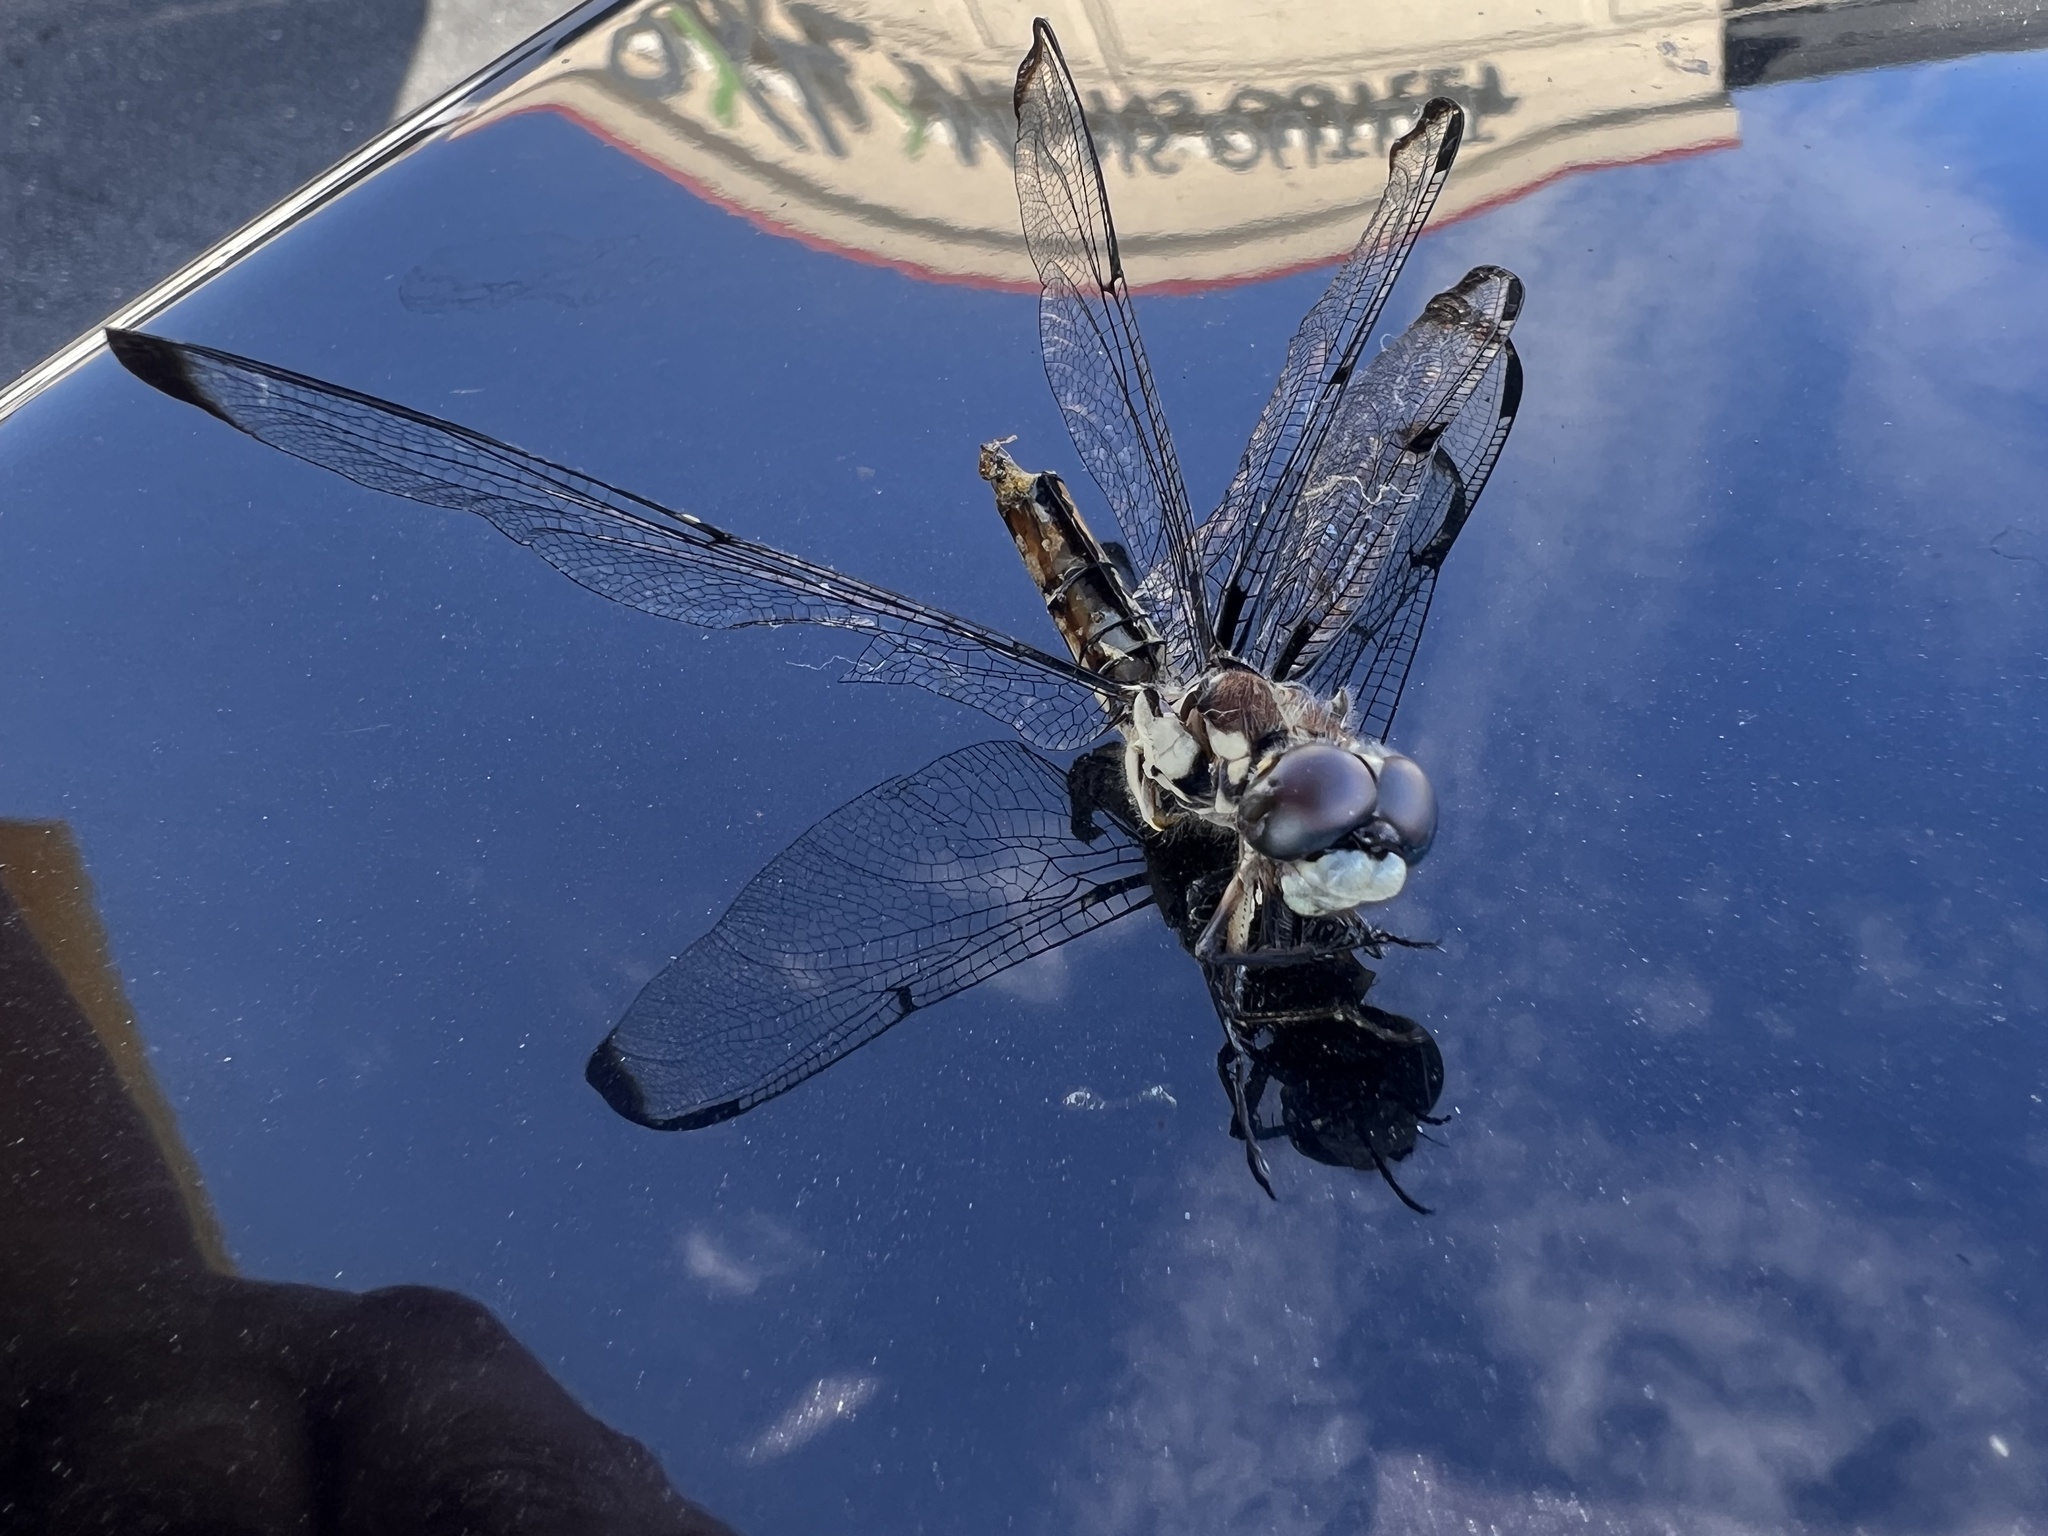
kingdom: Animalia
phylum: Arthropoda
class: Insecta
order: Odonata
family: Libellulidae
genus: Libellula
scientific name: Libellula vibrans
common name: Great blue skimmer
